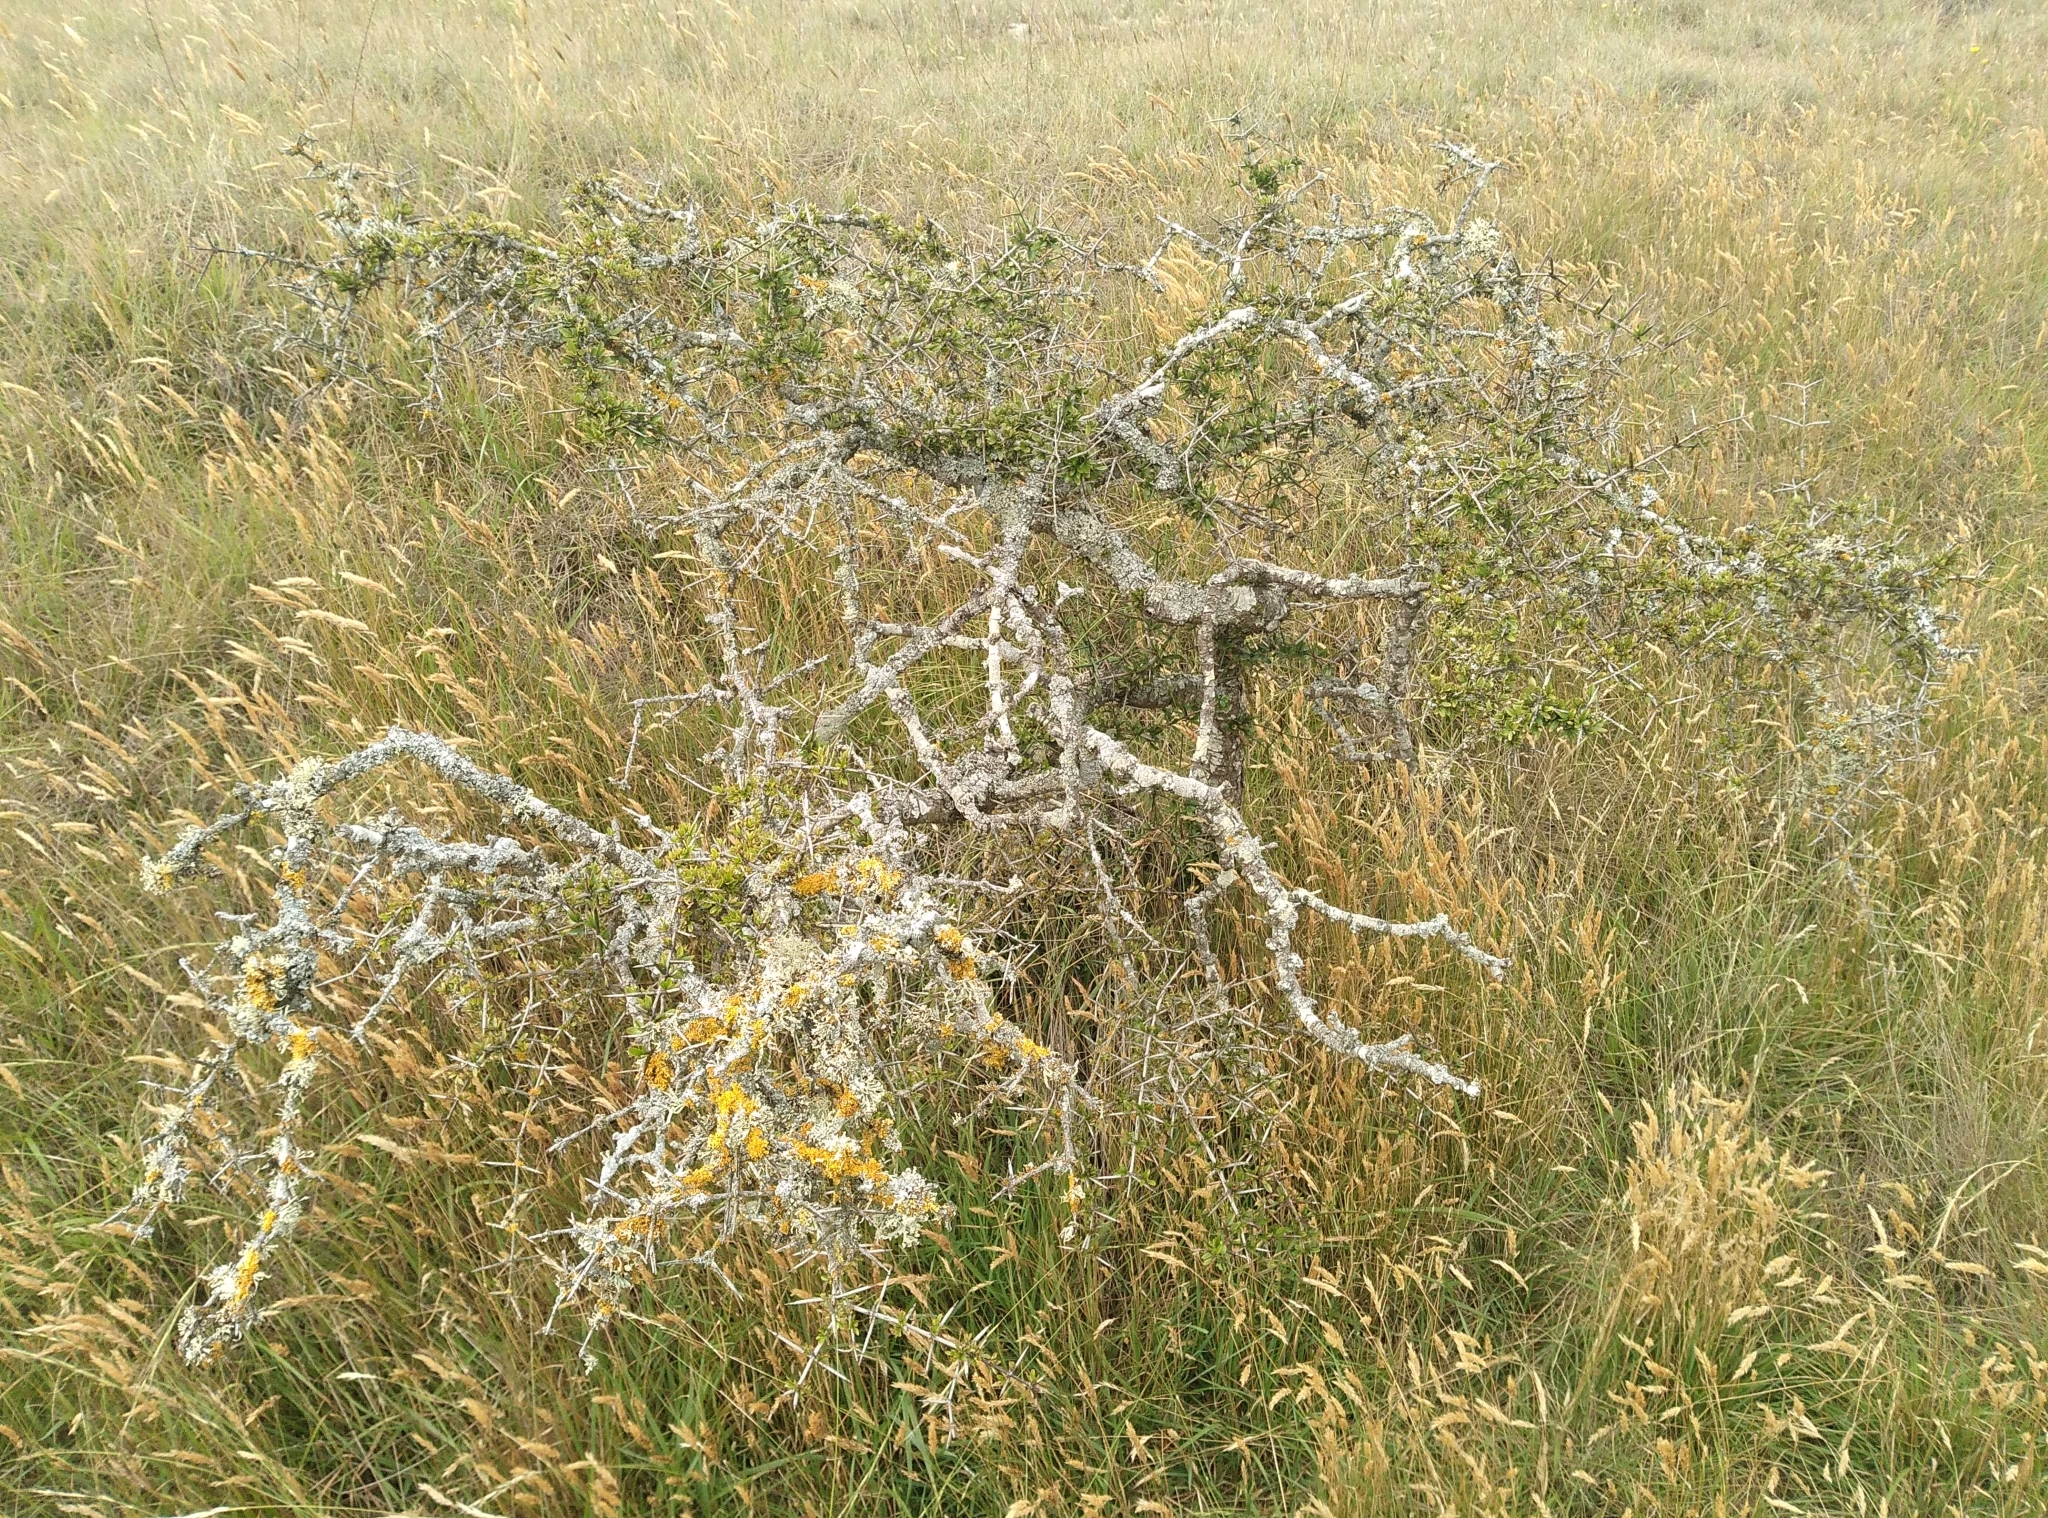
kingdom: Plantae
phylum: Tracheophyta
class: Magnoliopsida
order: Rosales
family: Rhamnaceae
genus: Discaria
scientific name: Discaria toumatou
